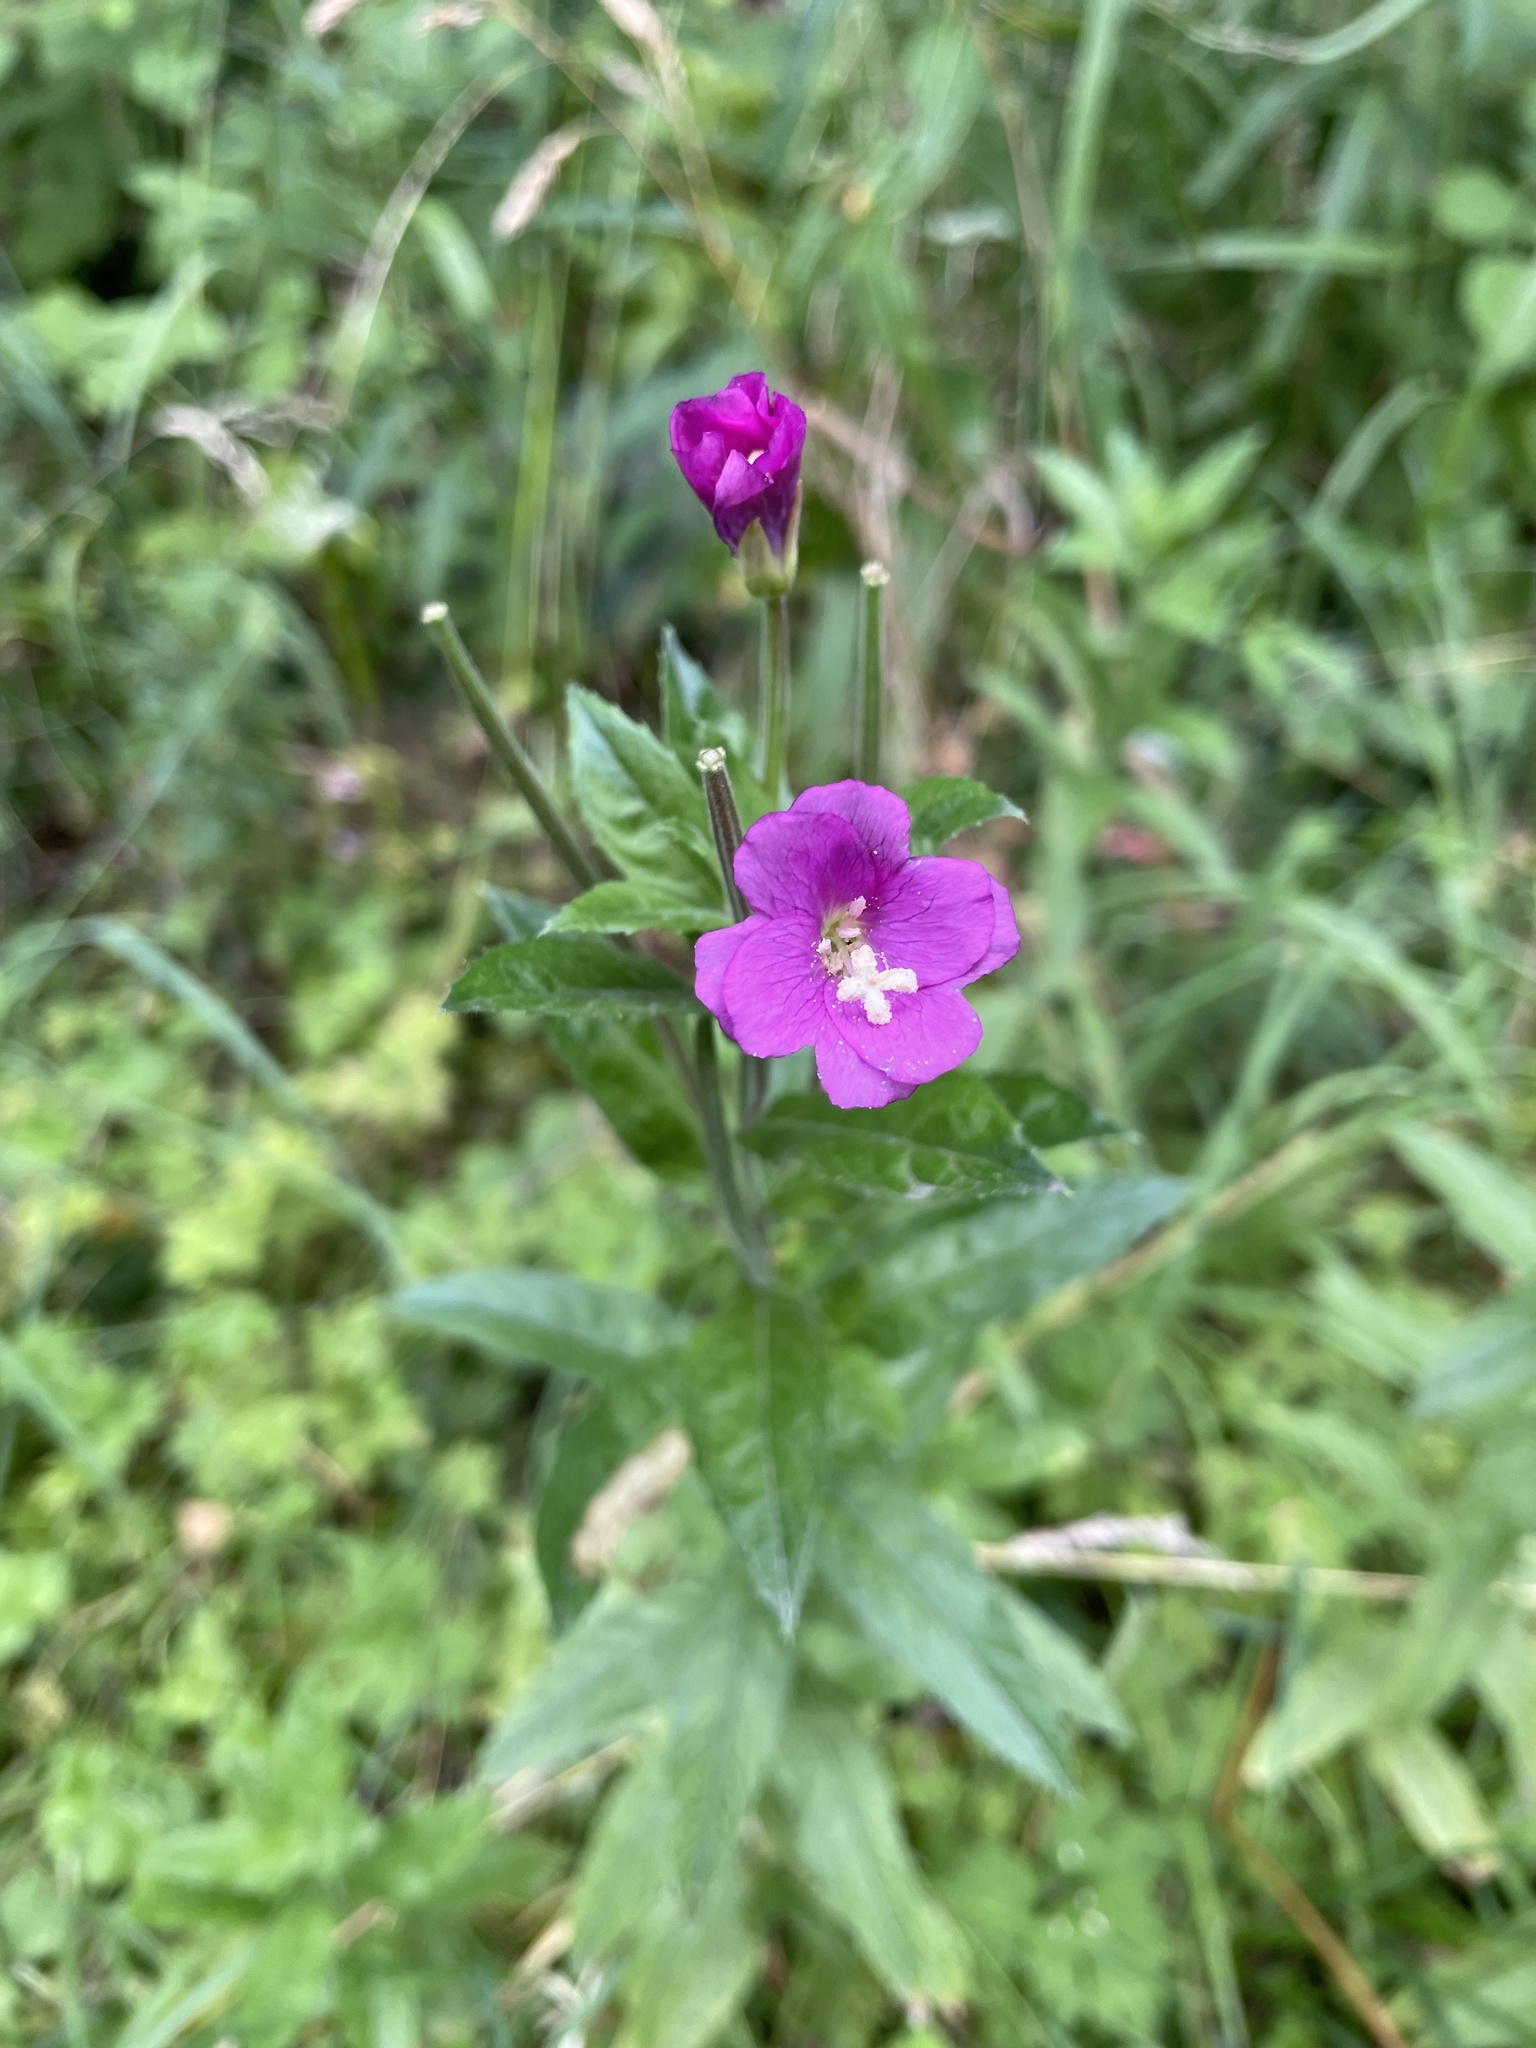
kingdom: Plantae
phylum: Tracheophyta
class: Magnoliopsida
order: Myrtales
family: Onagraceae
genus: Epilobium
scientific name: Epilobium hirsutum
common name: Great willowherb
